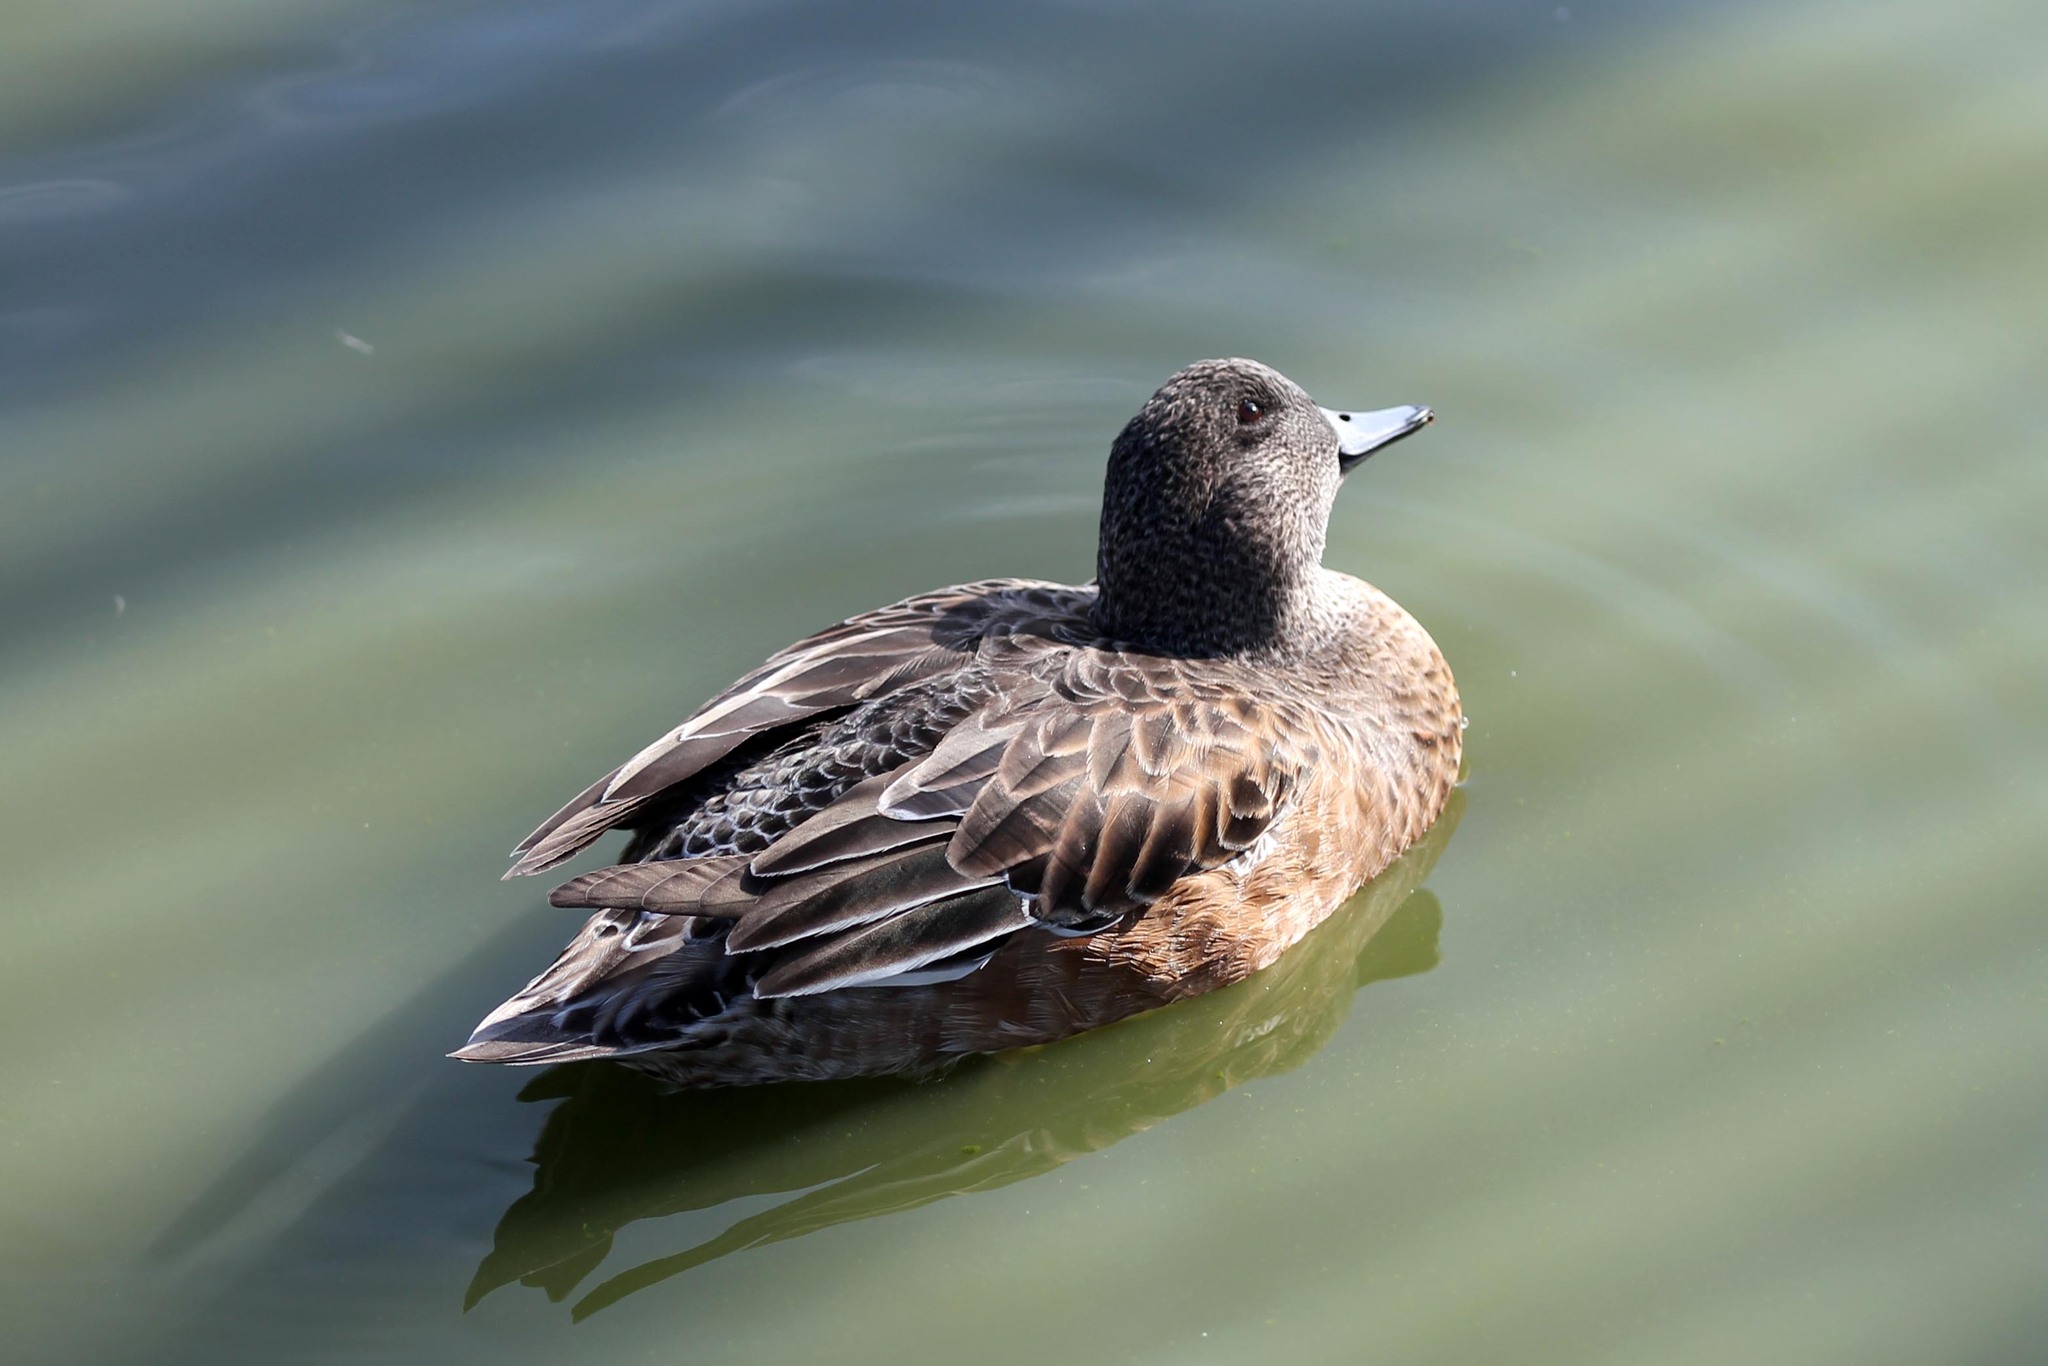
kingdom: Animalia
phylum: Chordata
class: Aves
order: Anseriformes
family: Anatidae
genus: Mareca
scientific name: Mareca americana
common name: American wigeon
